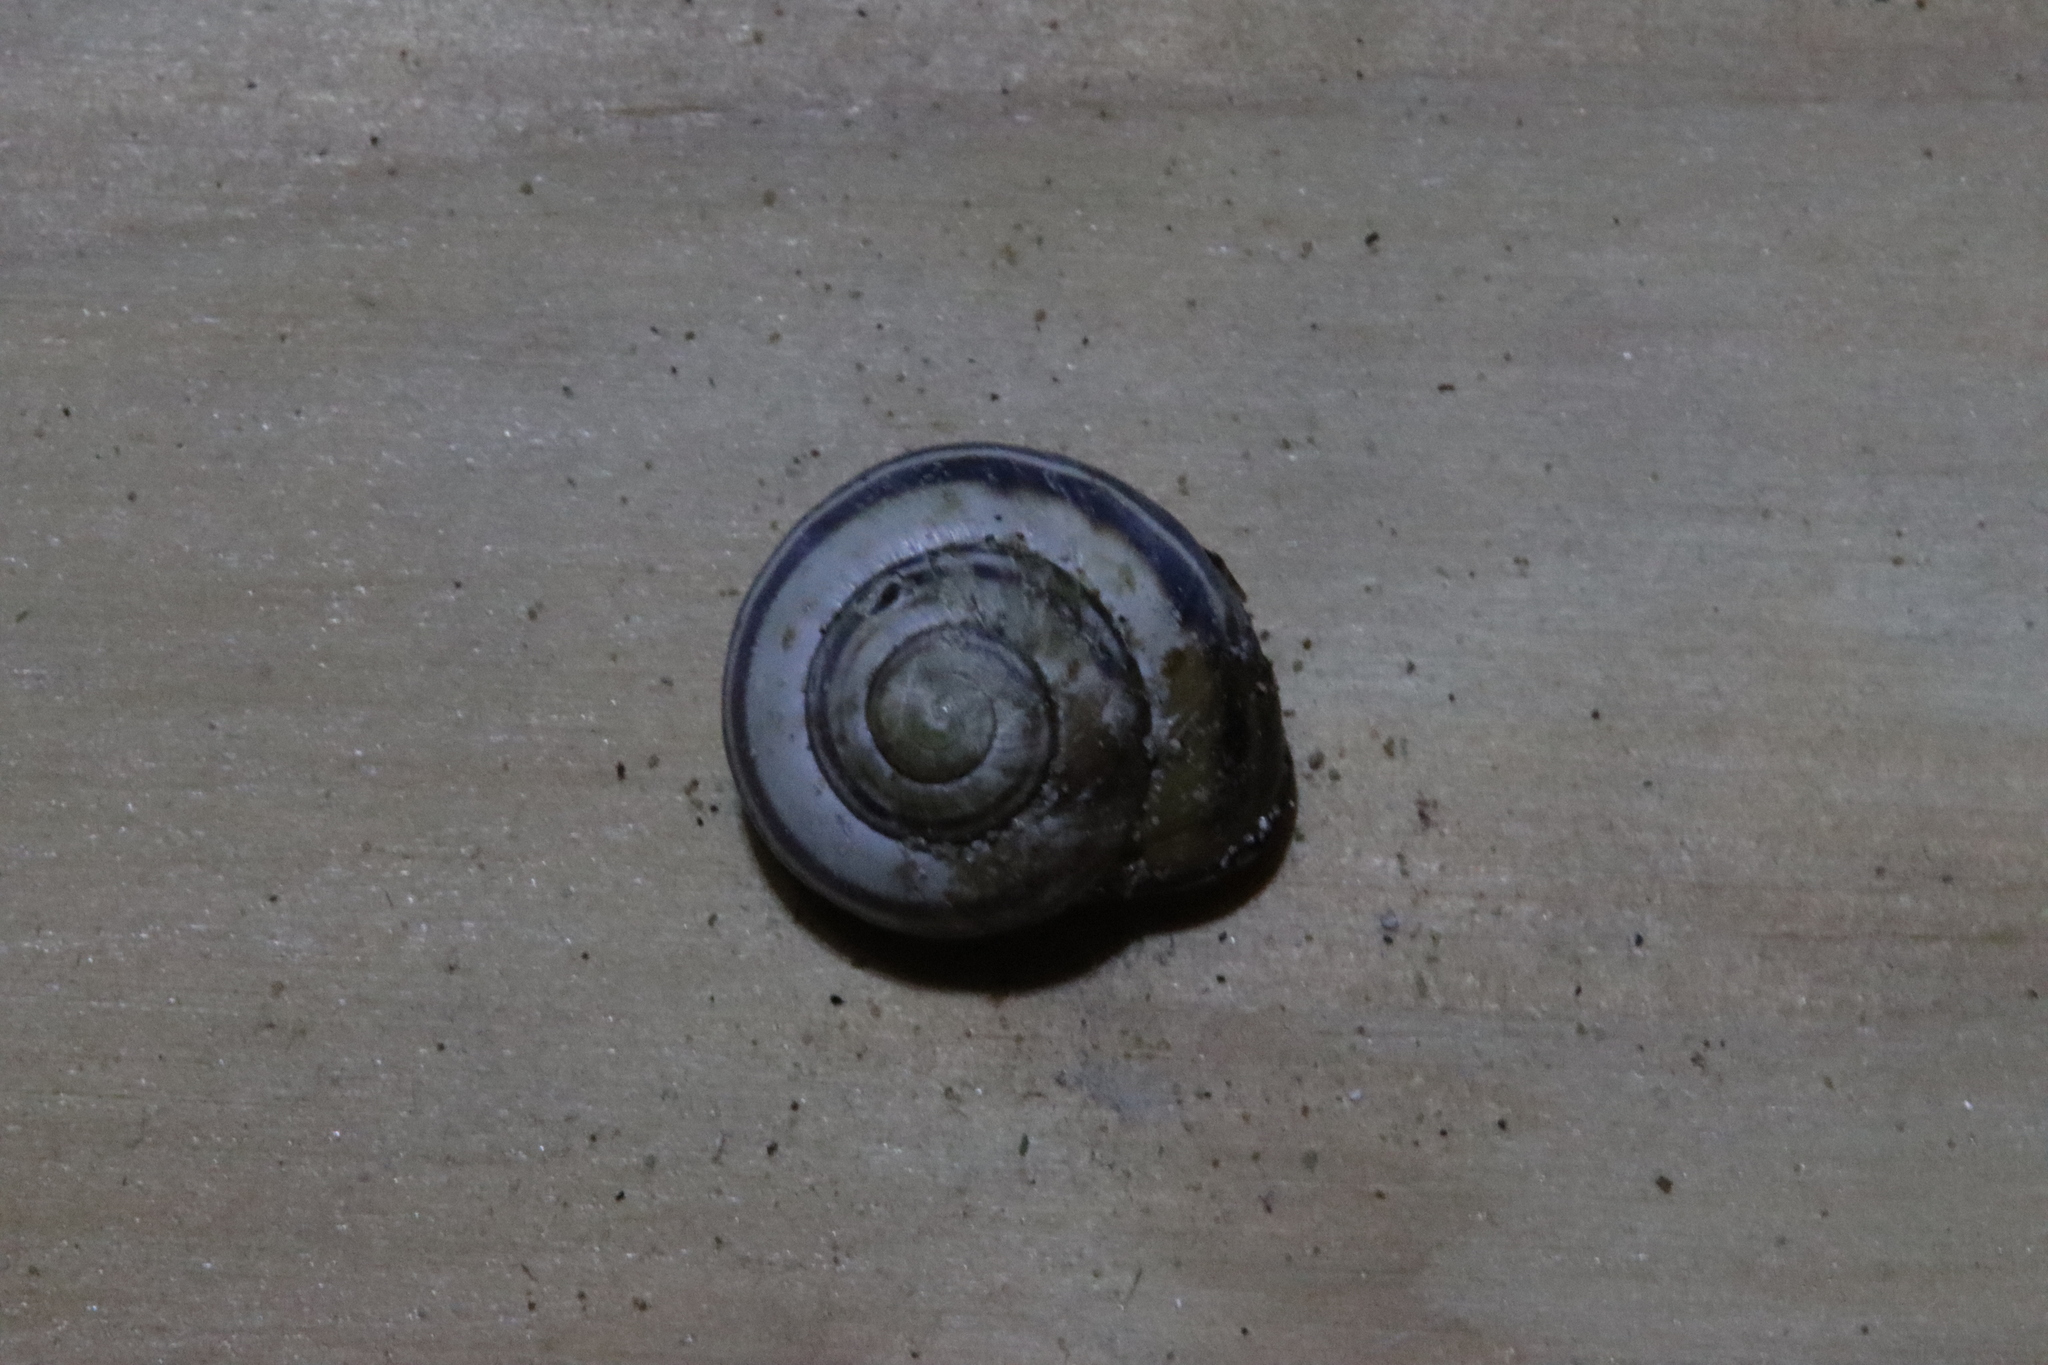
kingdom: Animalia
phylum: Mollusca
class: Gastropoda
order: Stylommatophora
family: Helicidae
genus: Cepaea
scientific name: Cepaea nemoralis
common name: Grovesnail
